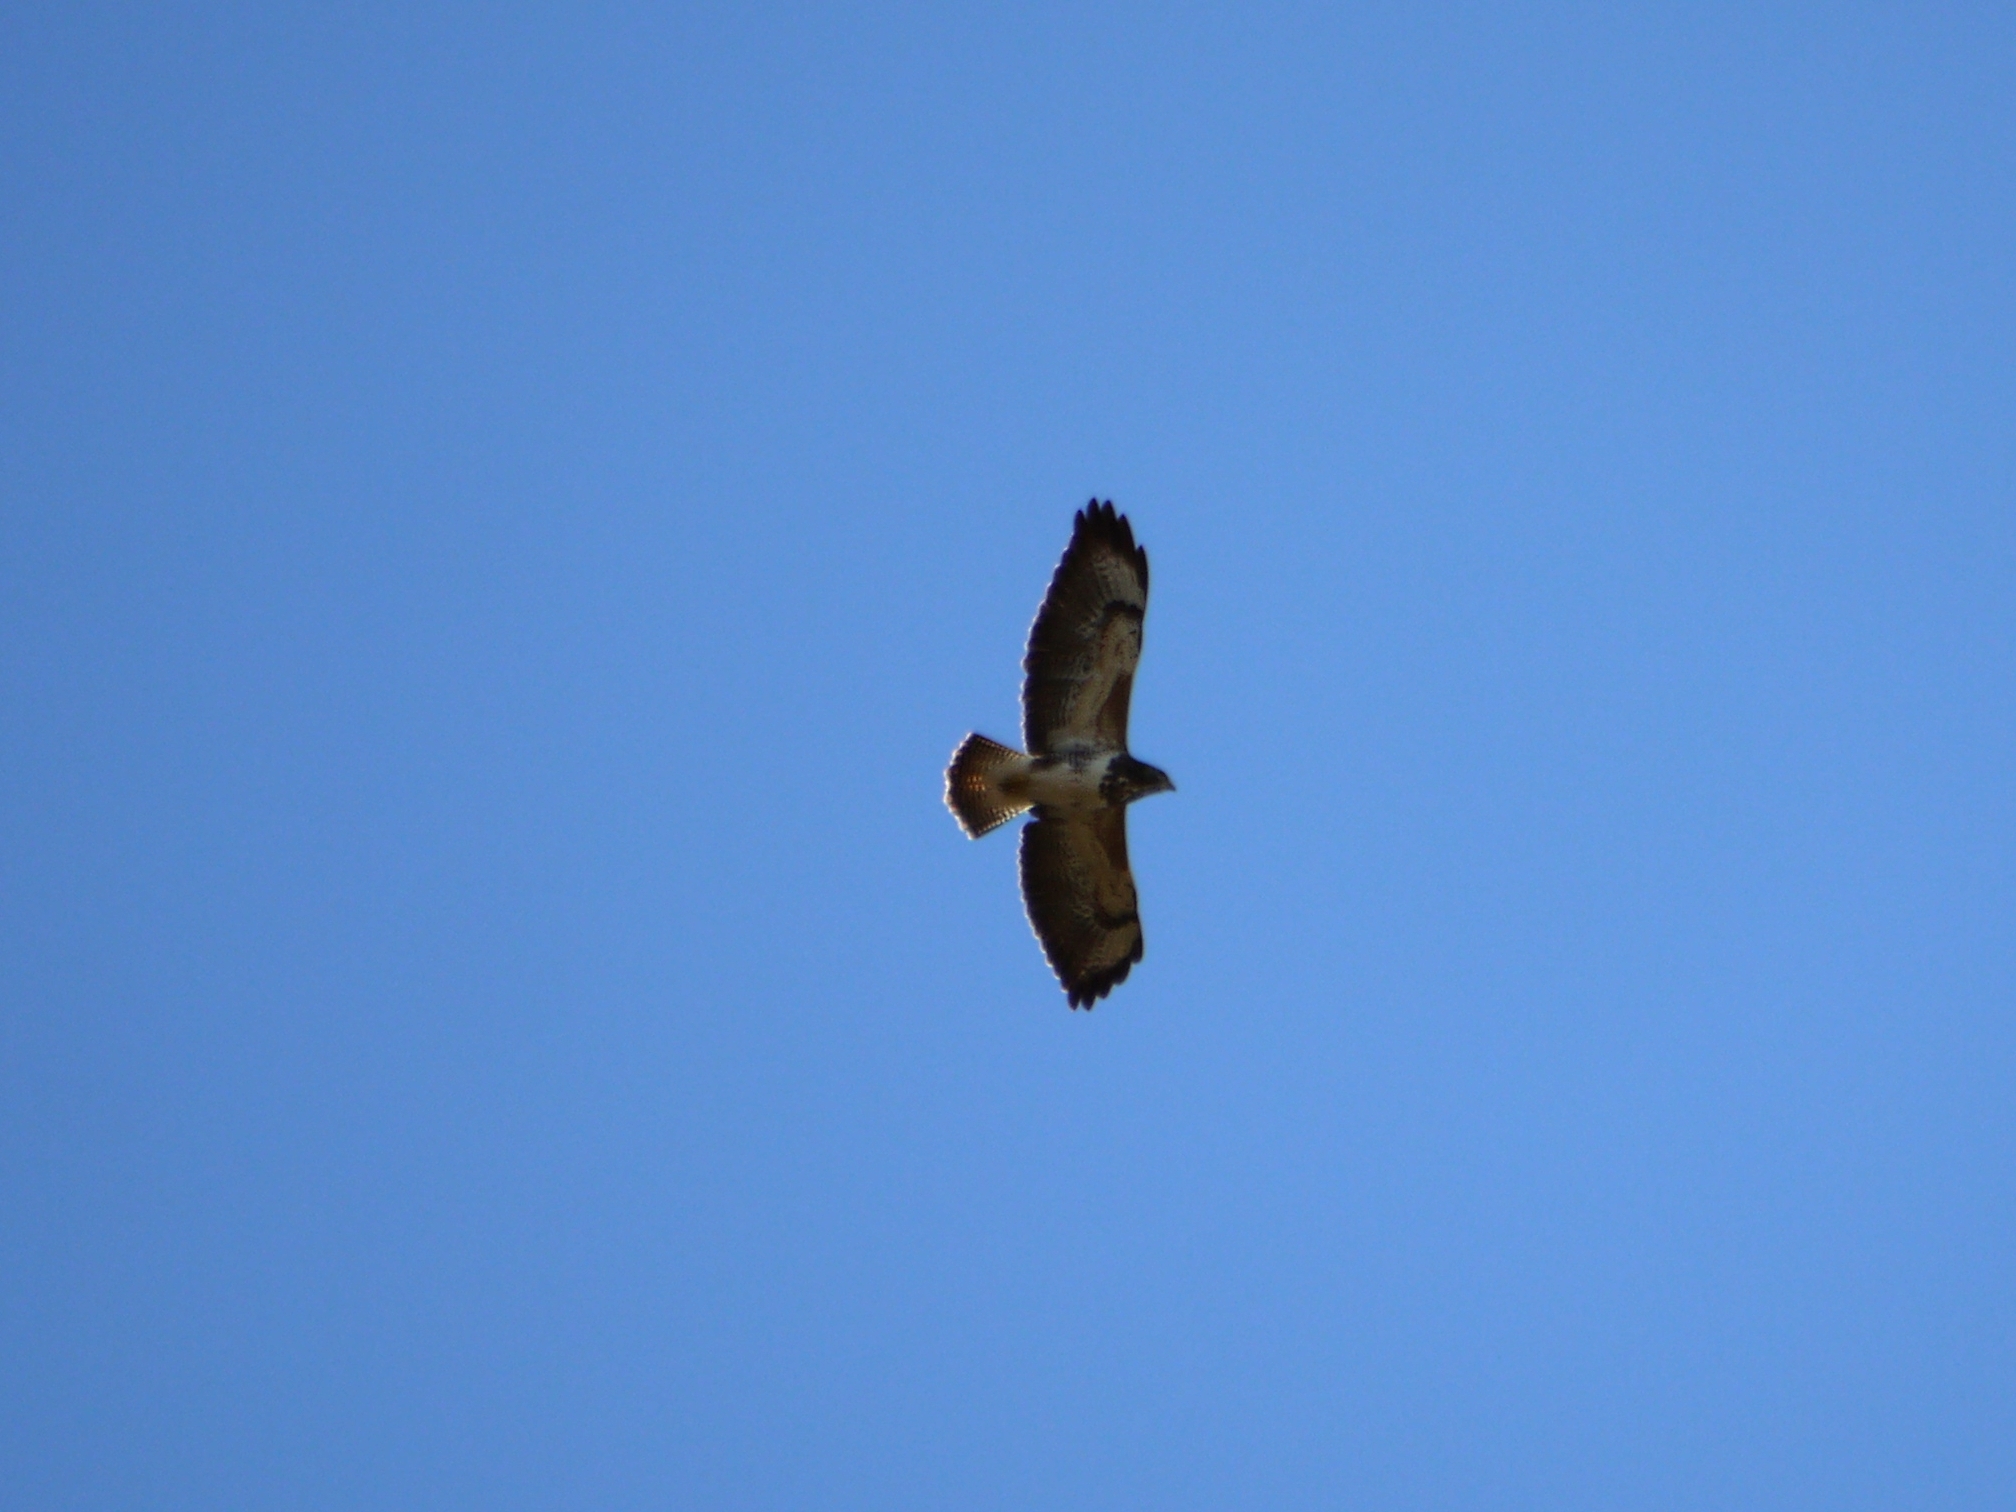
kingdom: Animalia
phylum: Chordata
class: Aves
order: Accipitriformes
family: Accipitridae
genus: Buteo
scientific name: Buteo buteo
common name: Common buzzard
